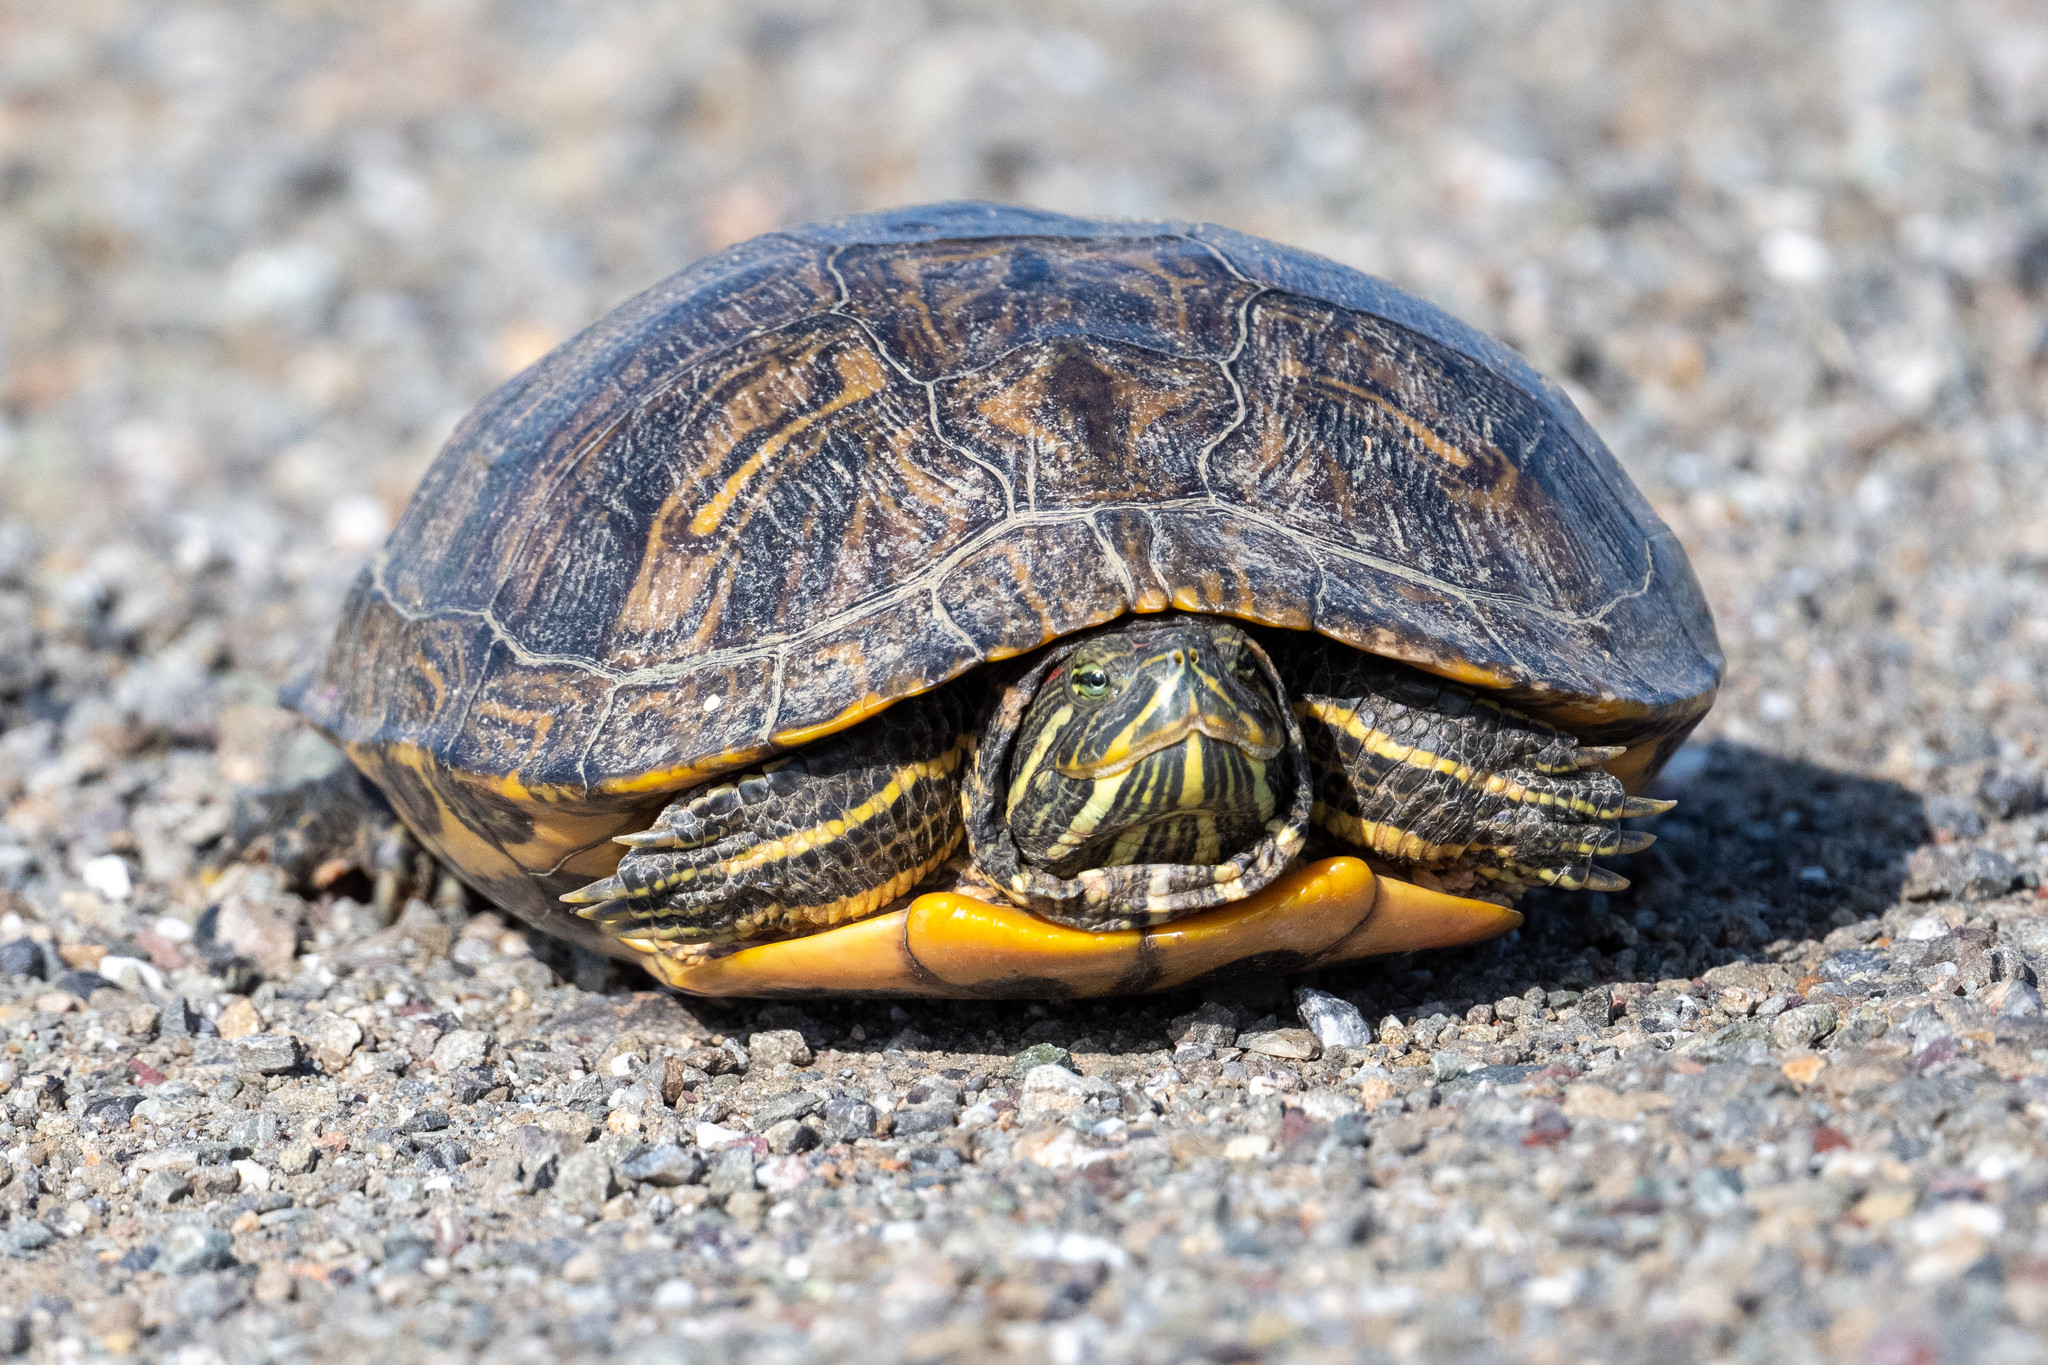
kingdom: Animalia
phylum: Chordata
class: Testudines
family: Emydidae
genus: Trachemys
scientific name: Trachemys scripta
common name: Slider
